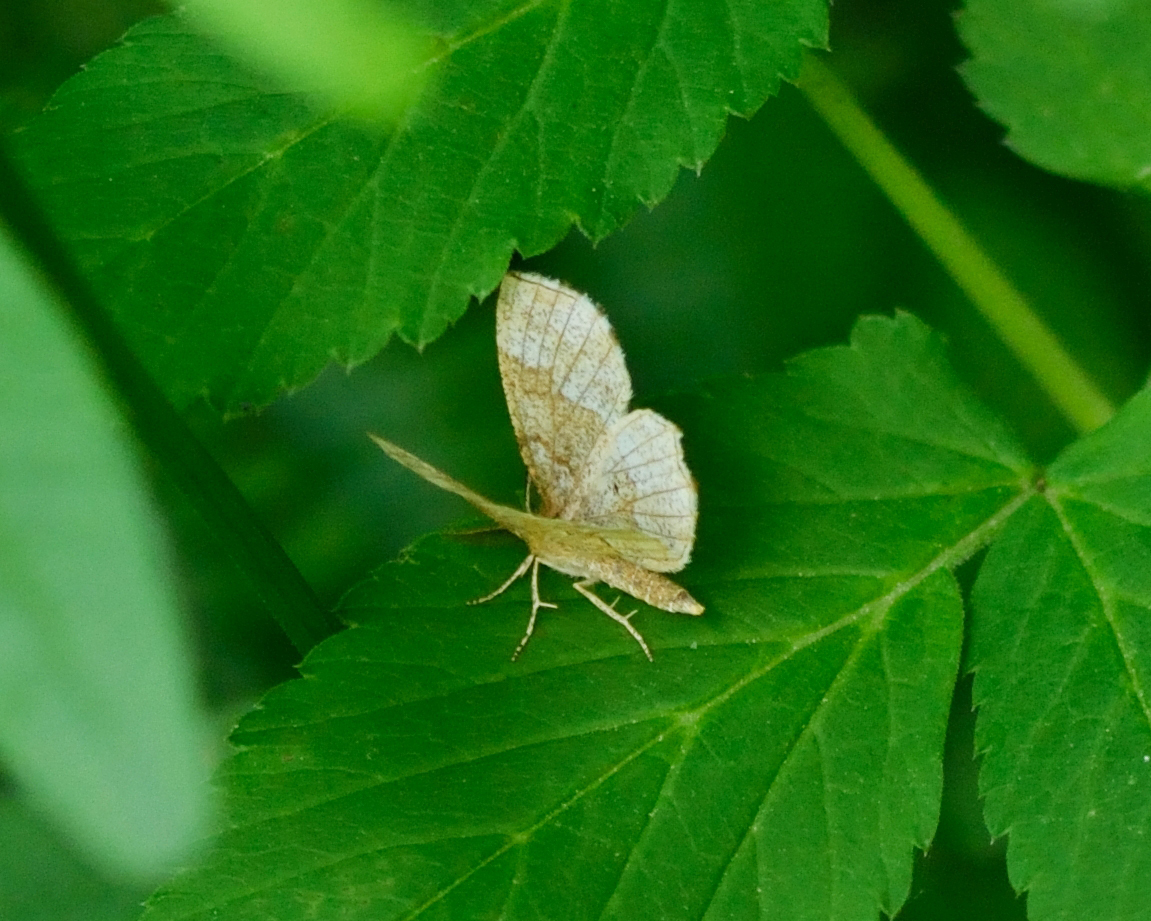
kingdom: Animalia
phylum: Arthropoda
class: Insecta
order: Lepidoptera
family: Geometridae
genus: Cepphis
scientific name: Cepphis advenaria
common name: Little thorn
